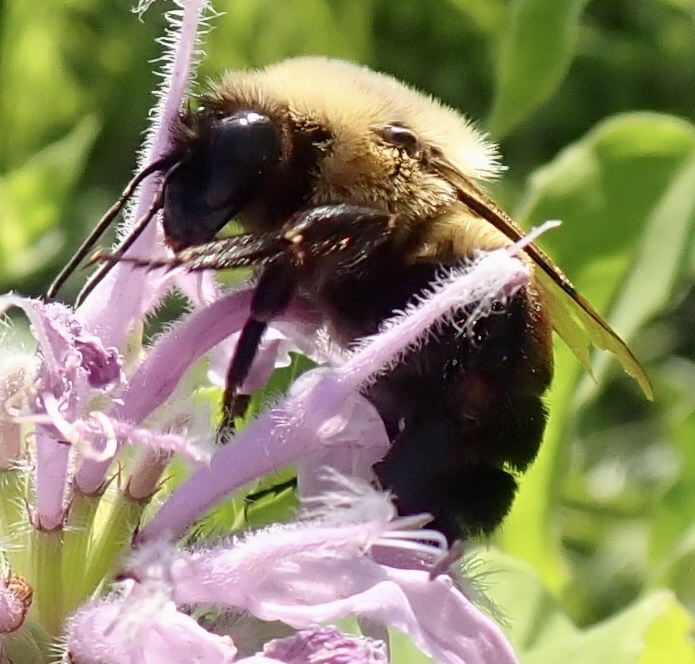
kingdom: Animalia
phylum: Arthropoda
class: Insecta
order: Hymenoptera
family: Apidae
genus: Bombus
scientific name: Bombus impatiens
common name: Common eastern bumble bee
